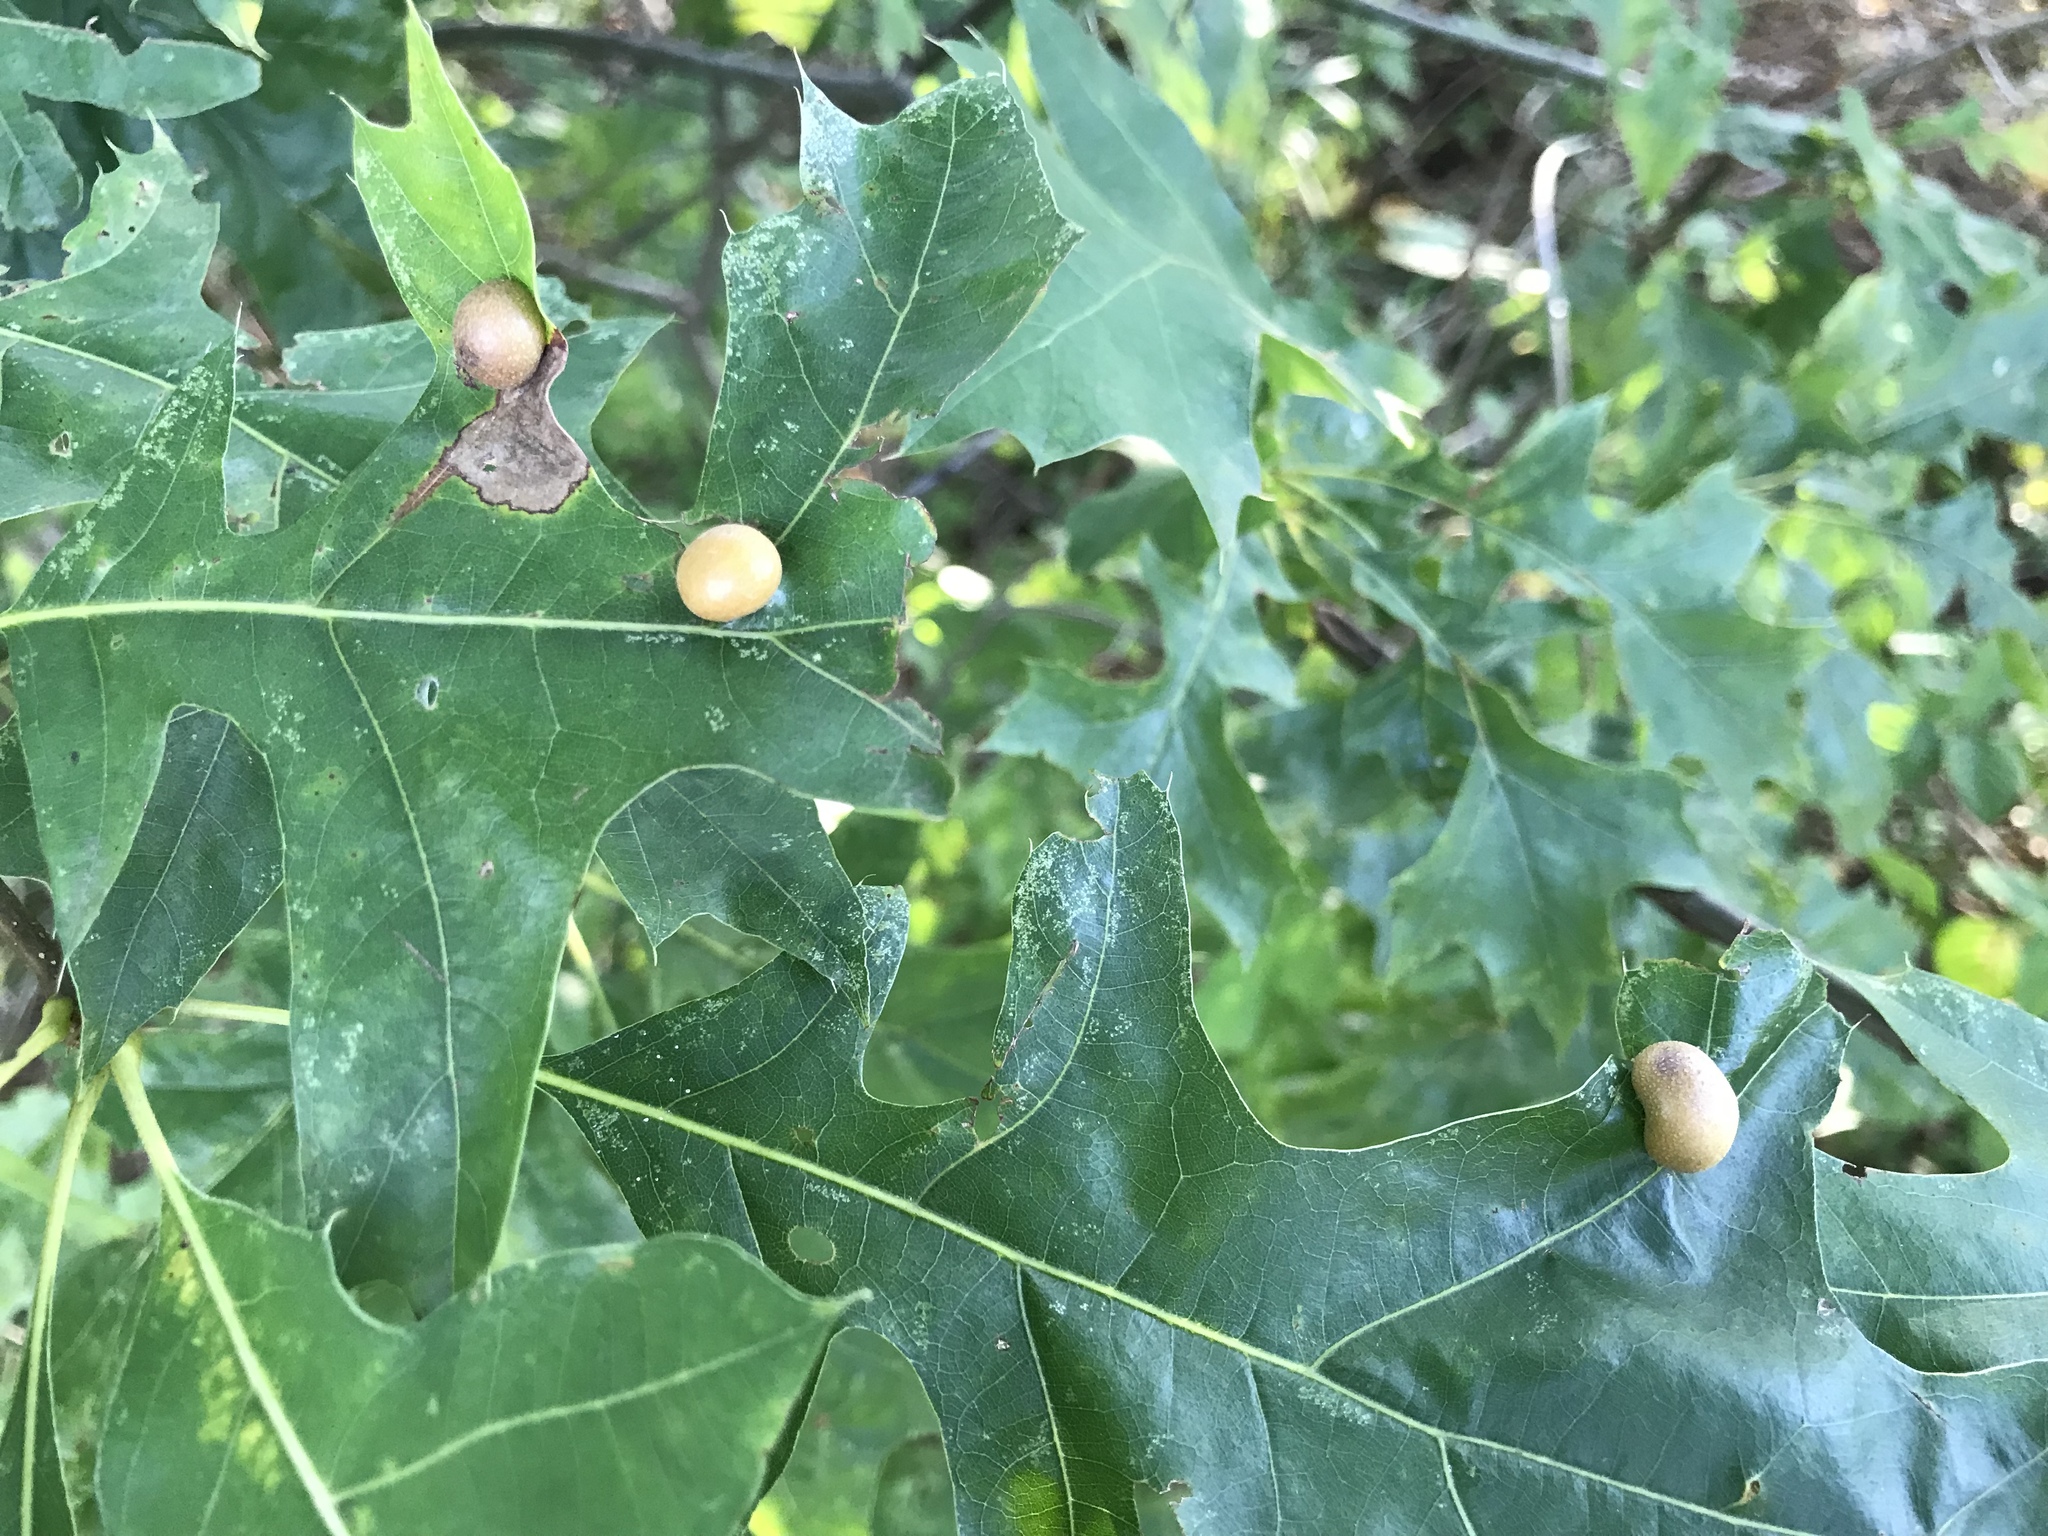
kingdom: Animalia
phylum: Arthropoda
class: Insecta
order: Diptera
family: Cecidomyiidae
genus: Polystepha
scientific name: Polystepha pilulae
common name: Oak leaf gall midge
